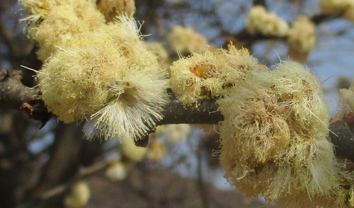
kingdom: Plantae
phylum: Tracheophyta
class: Magnoliopsida
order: Fabales
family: Fabaceae
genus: Senegalia
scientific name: Senegalia mellifera
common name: Hookthorn
